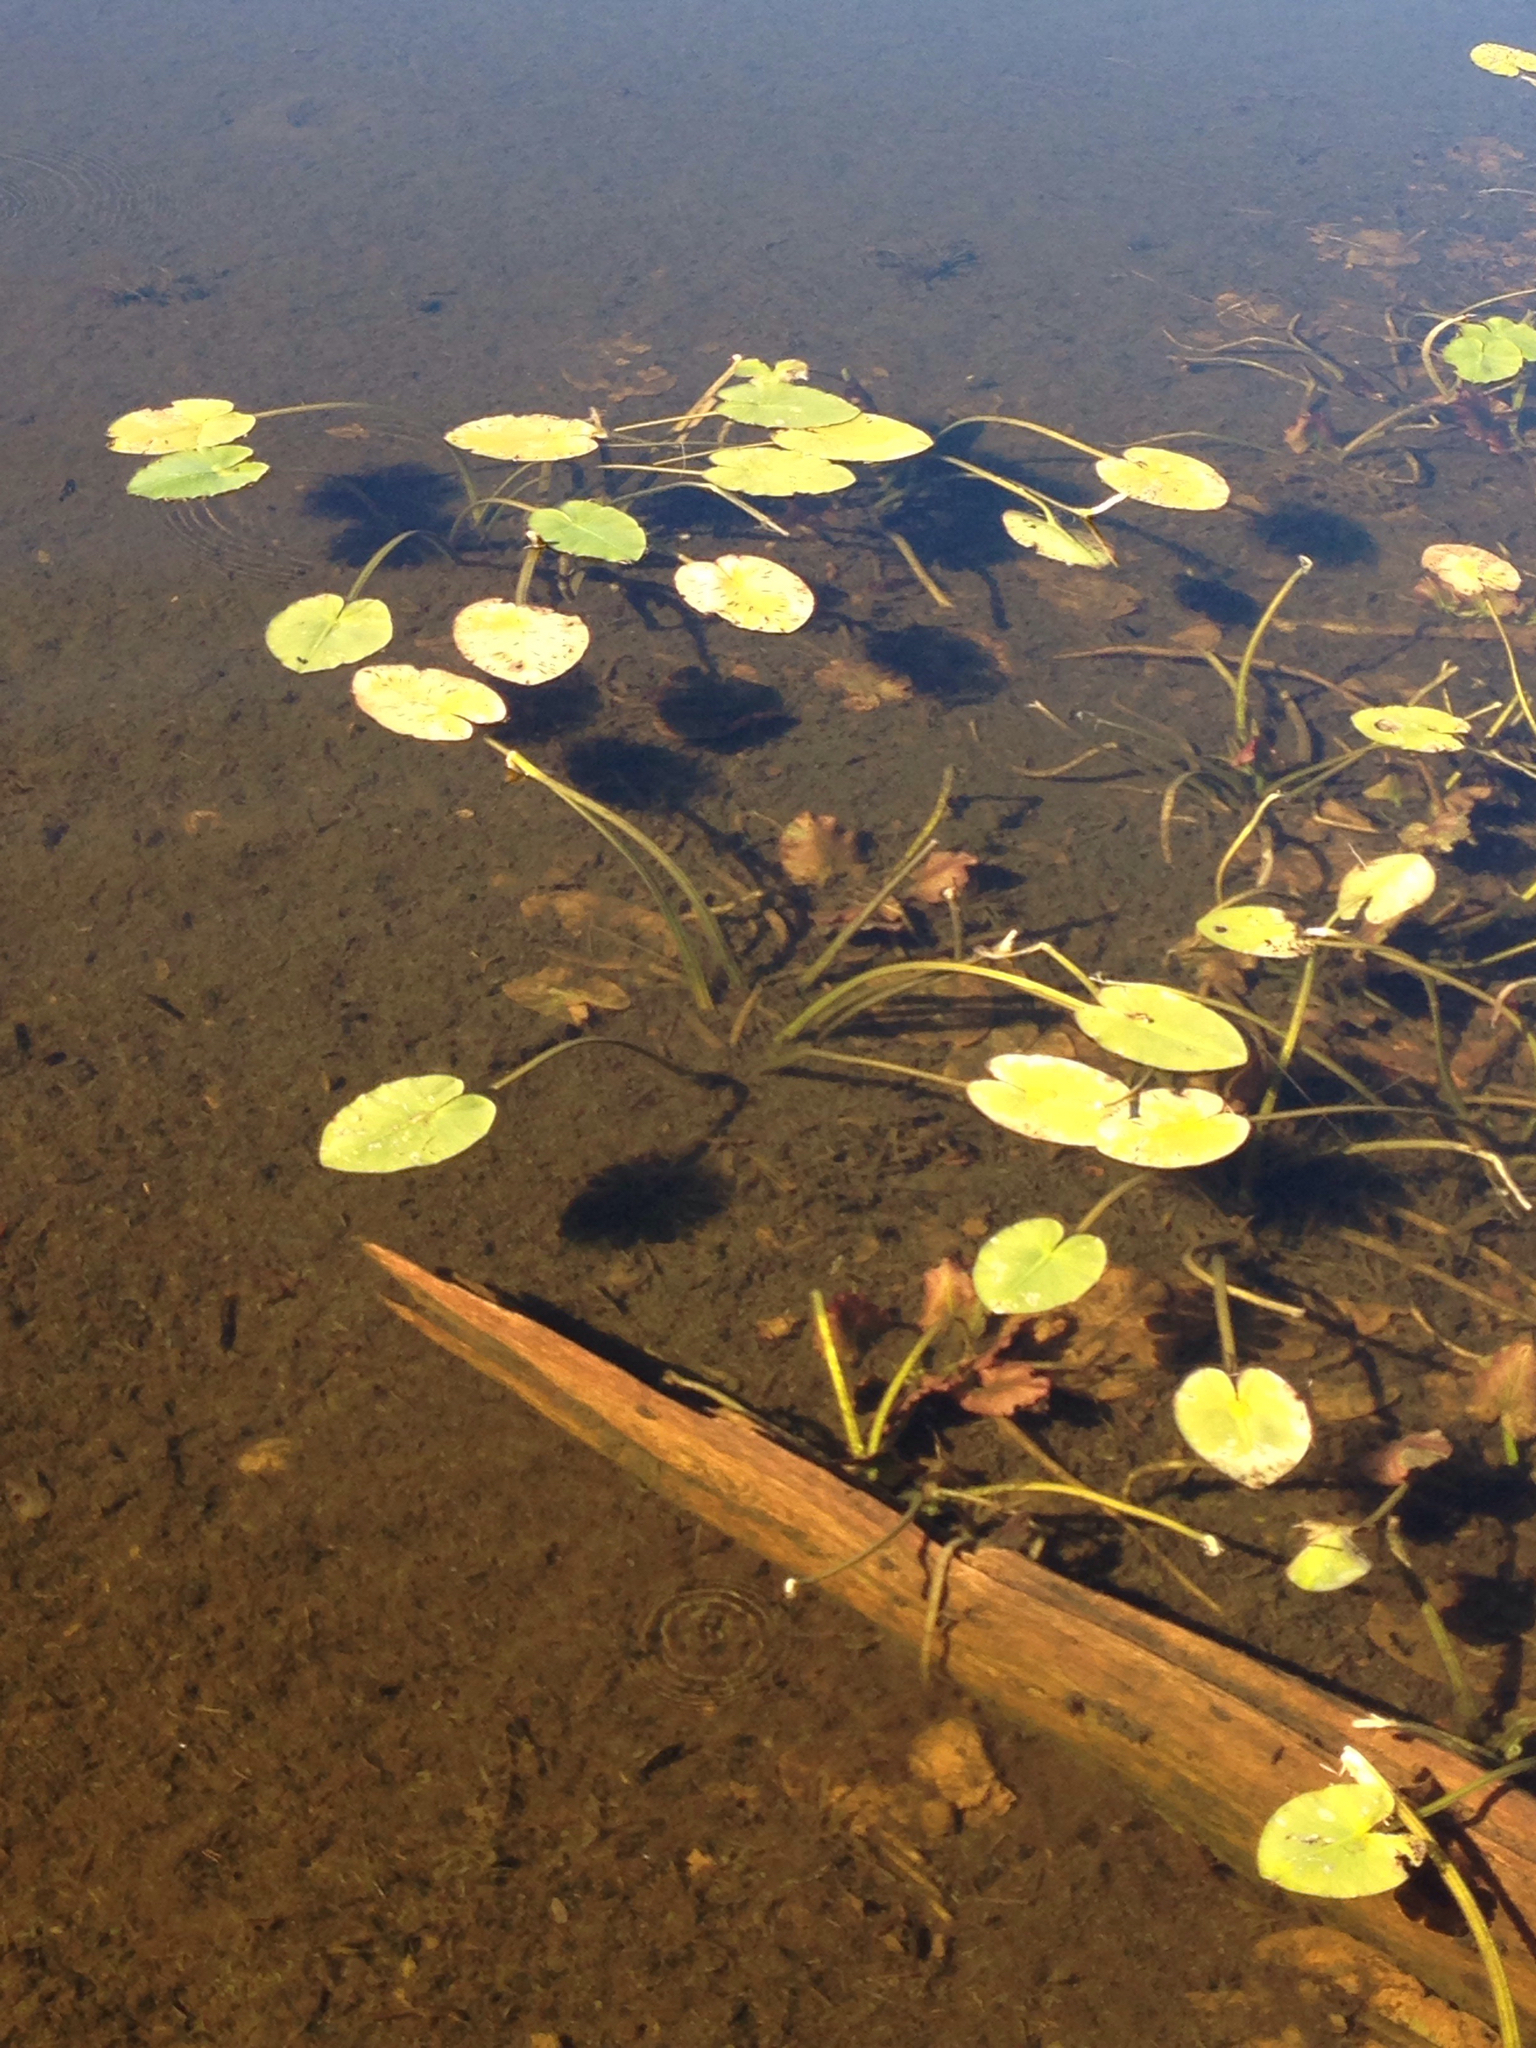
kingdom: Plantae
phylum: Tracheophyta
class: Magnoliopsida
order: Nymphaeales
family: Nymphaeaceae
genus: Nuphar
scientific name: Nuphar variegata
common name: Beaver-root
